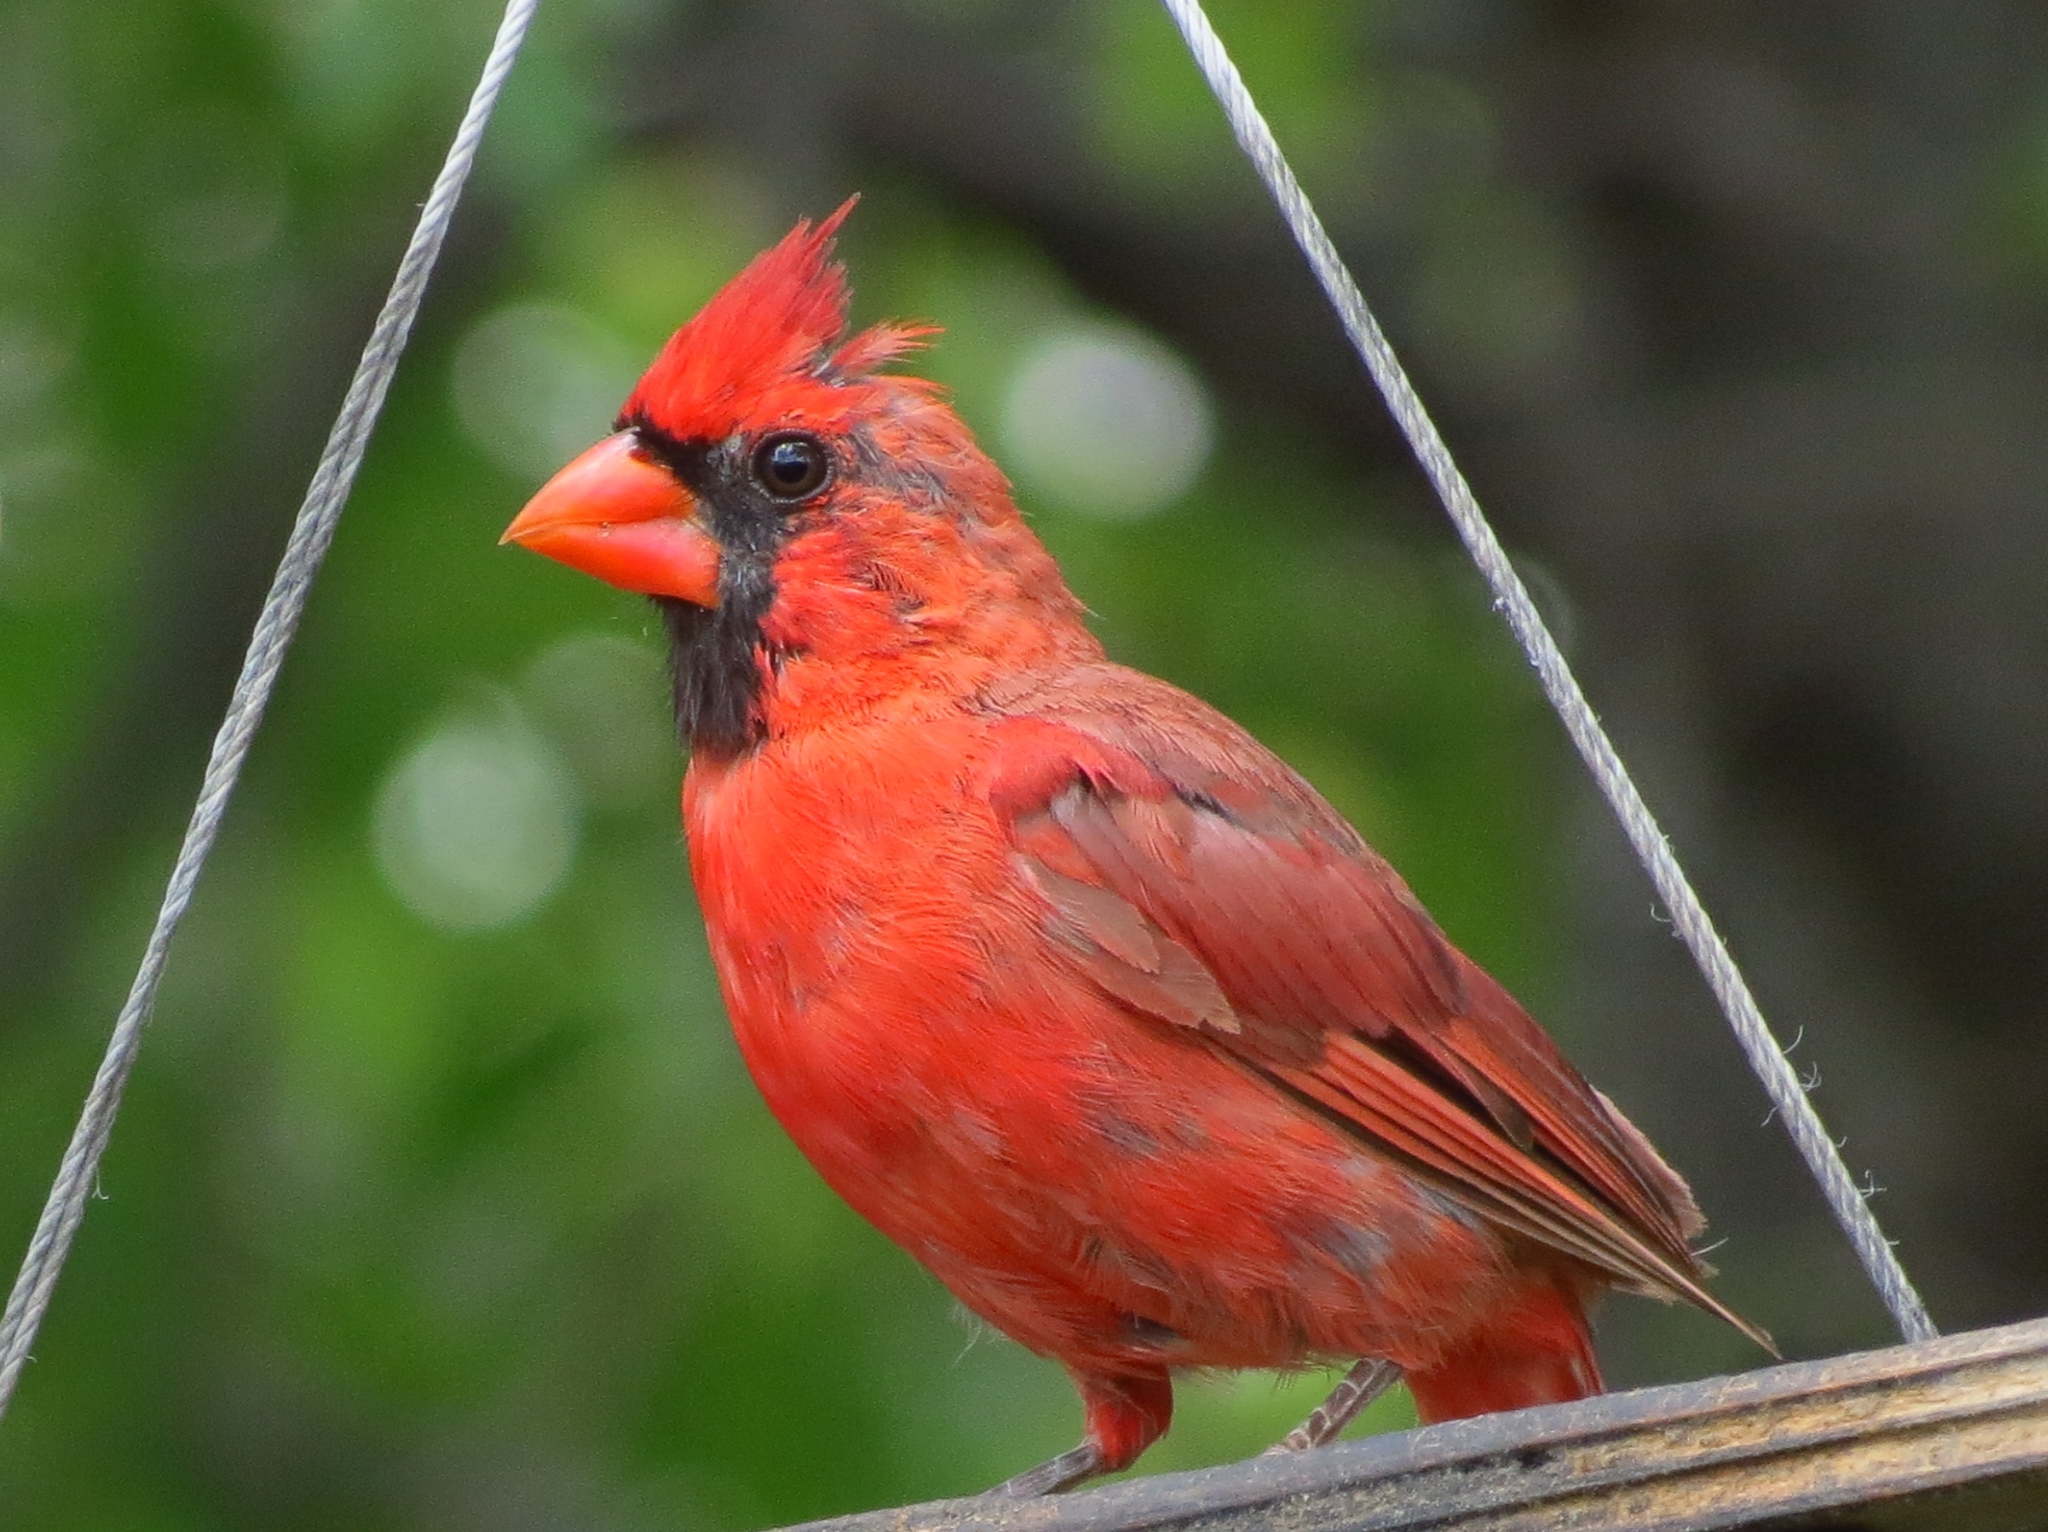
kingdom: Animalia
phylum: Chordata
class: Aves
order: Passeriformes
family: Cardinalidae
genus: Cardinalis
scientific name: Cardinalis cardinalis
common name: Northern cardinal
